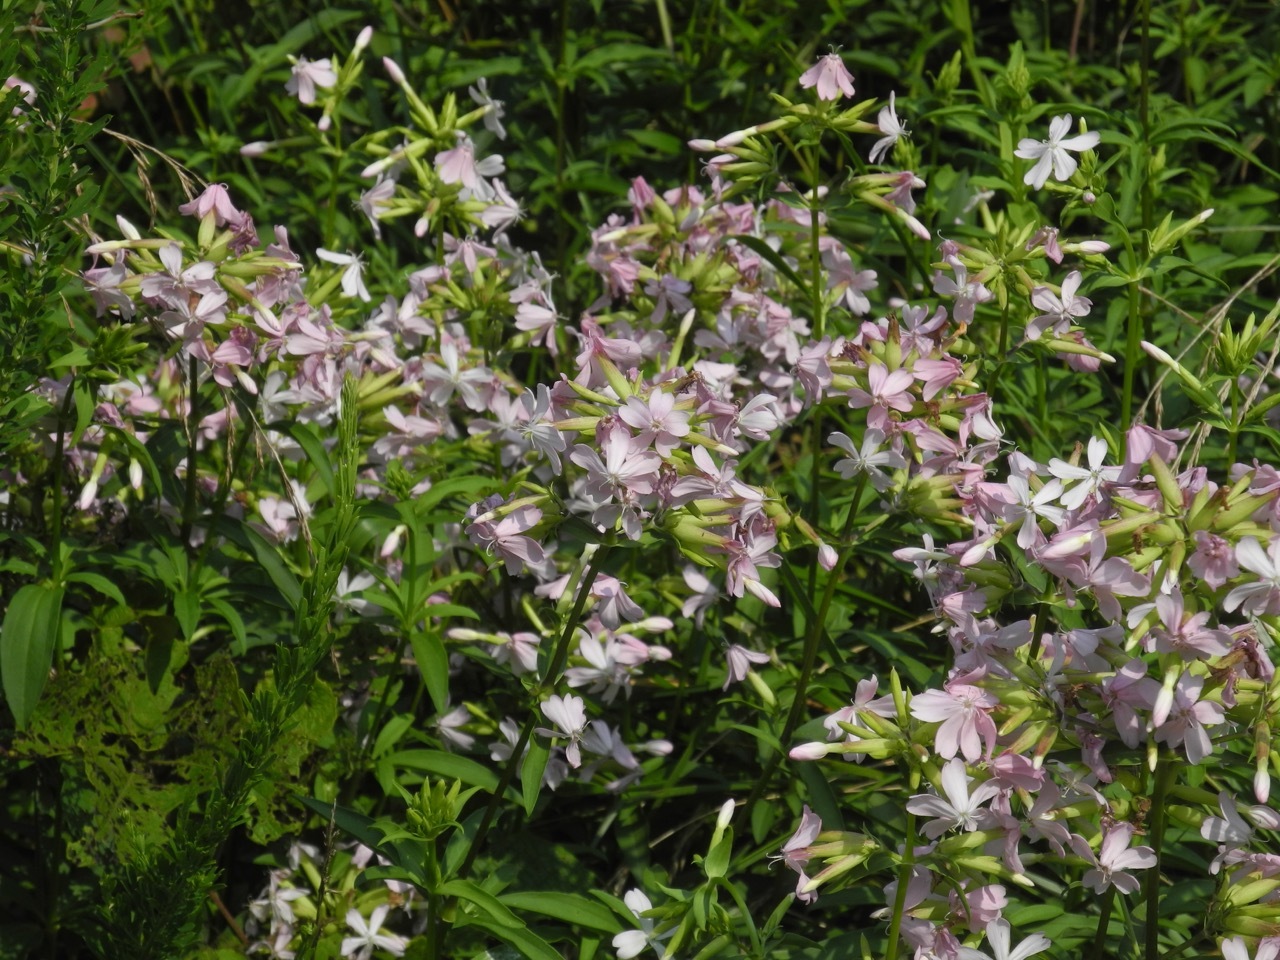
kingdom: Plantae
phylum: Tracheophyta
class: Magnoliopsida
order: Caryophyllales
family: Caryophyllaceae
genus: Saponaria
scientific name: Saponaria officinalis
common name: Soapwort
